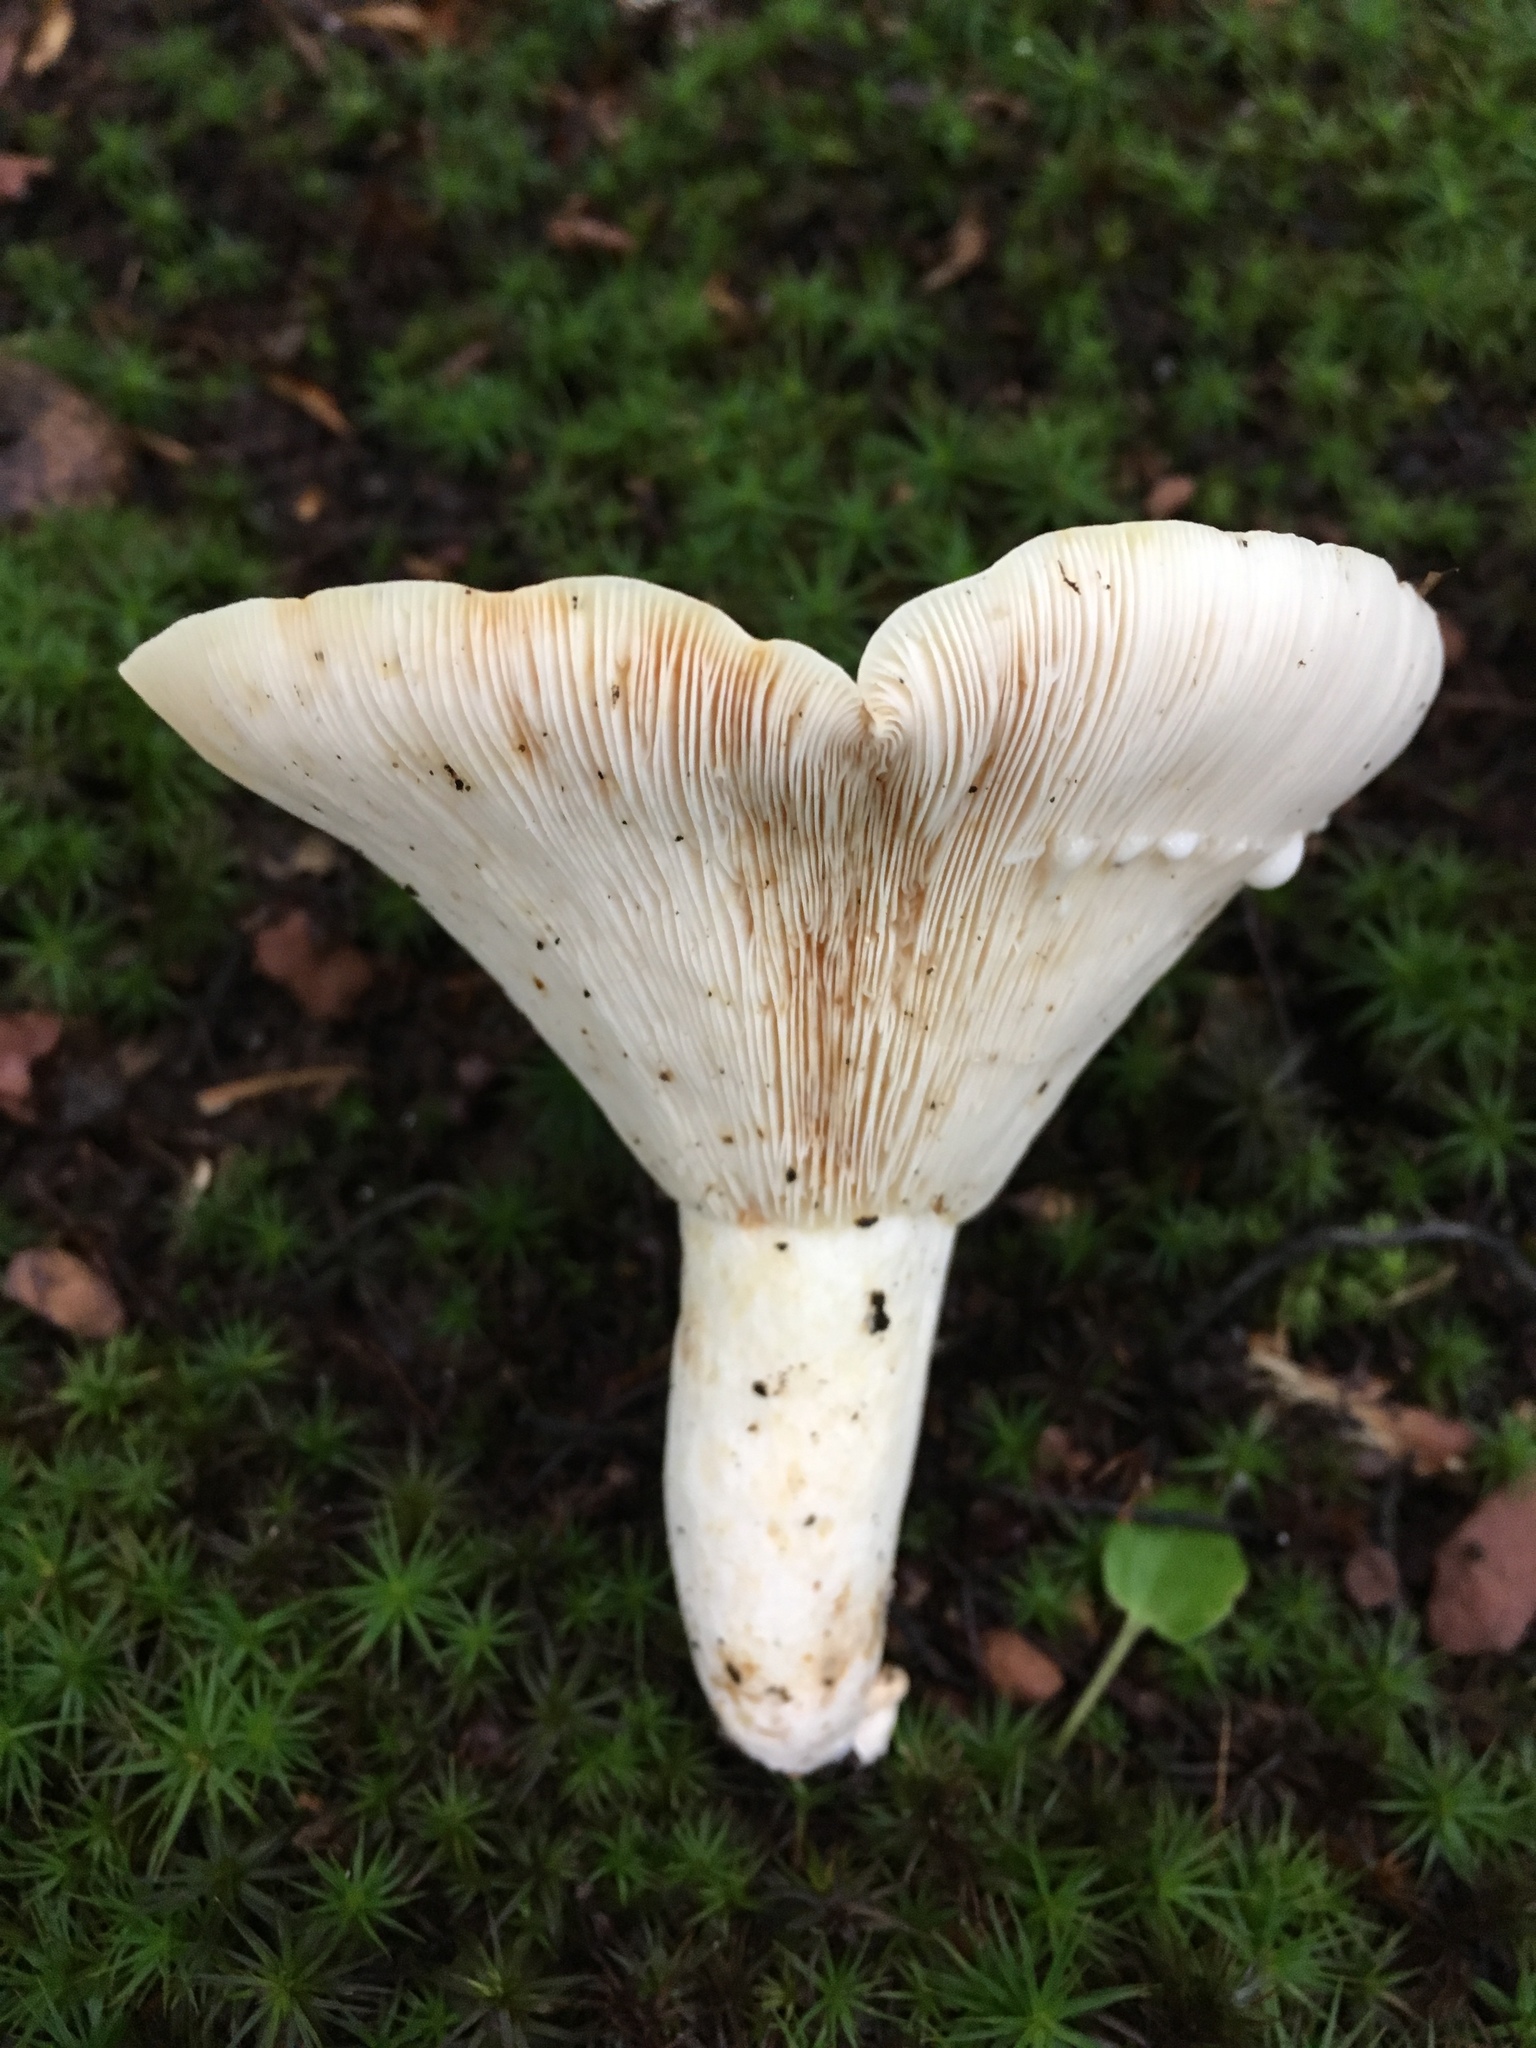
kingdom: Fungi
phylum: Basidiomycota
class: Agaricomycetes
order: Russulales
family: Russulaceae
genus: Lactifluus
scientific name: Lactifluus piperatus
